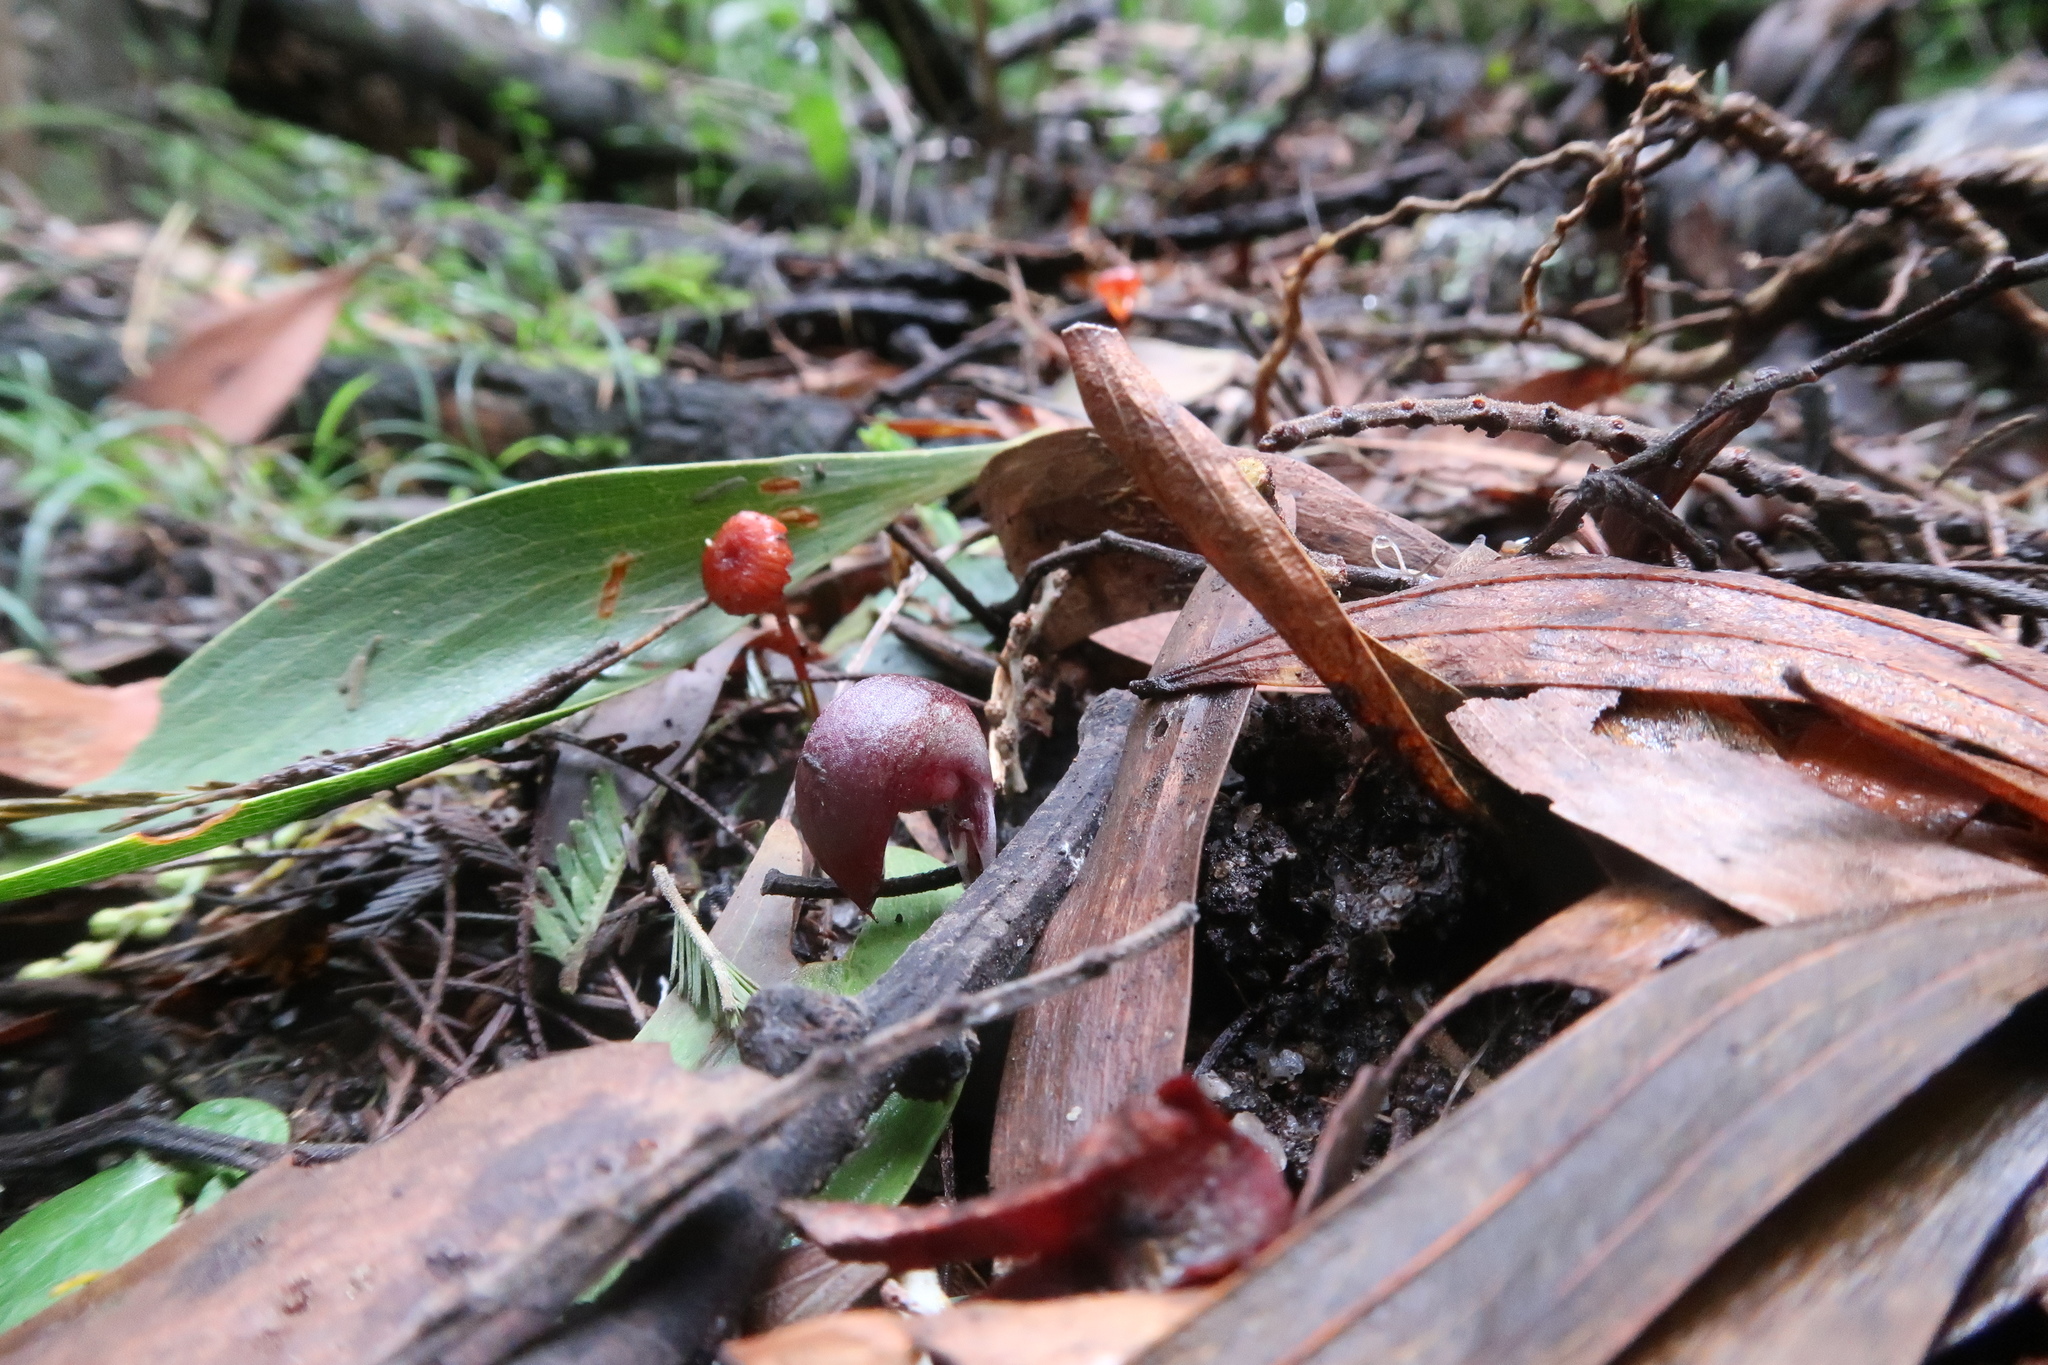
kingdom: Plantae
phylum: Tracheophyta
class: Liliopsida
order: Asparagales
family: Orchidaceae
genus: Corybas
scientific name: Corybas aconitiflorus
